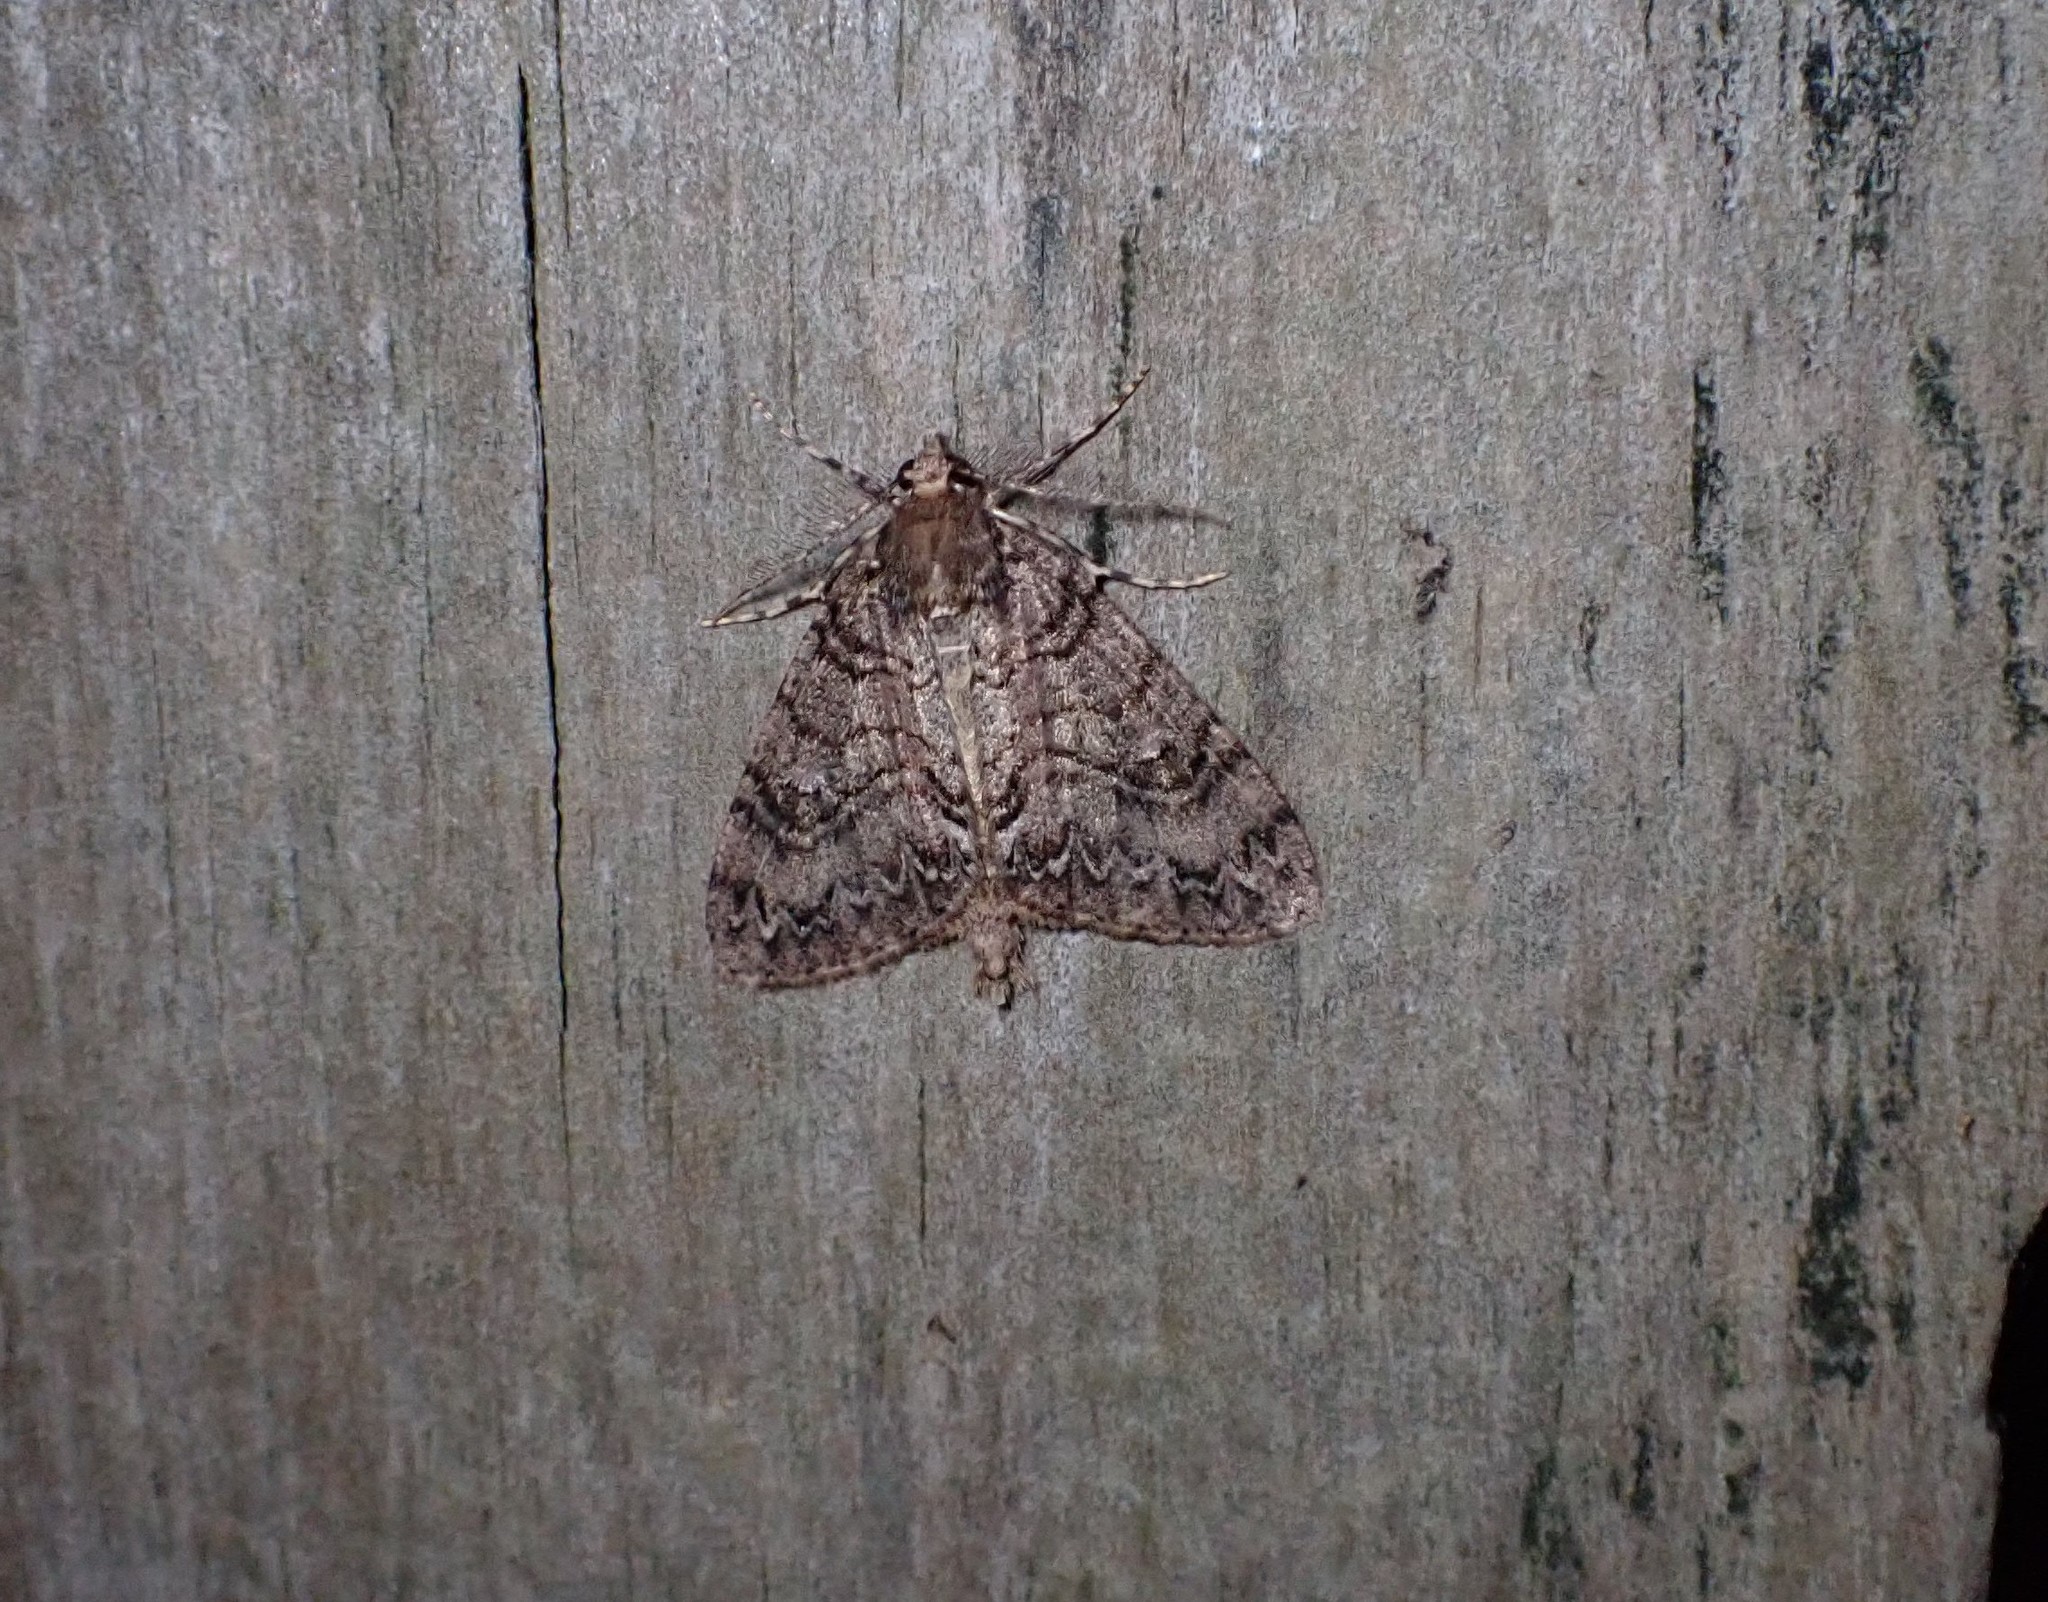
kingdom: Animalia
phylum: Arthropoda
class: Insecta
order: Lepidoptera
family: Geometridae
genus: Pseudocoremia
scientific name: Pseudocoremia suavis
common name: Common forest looper
